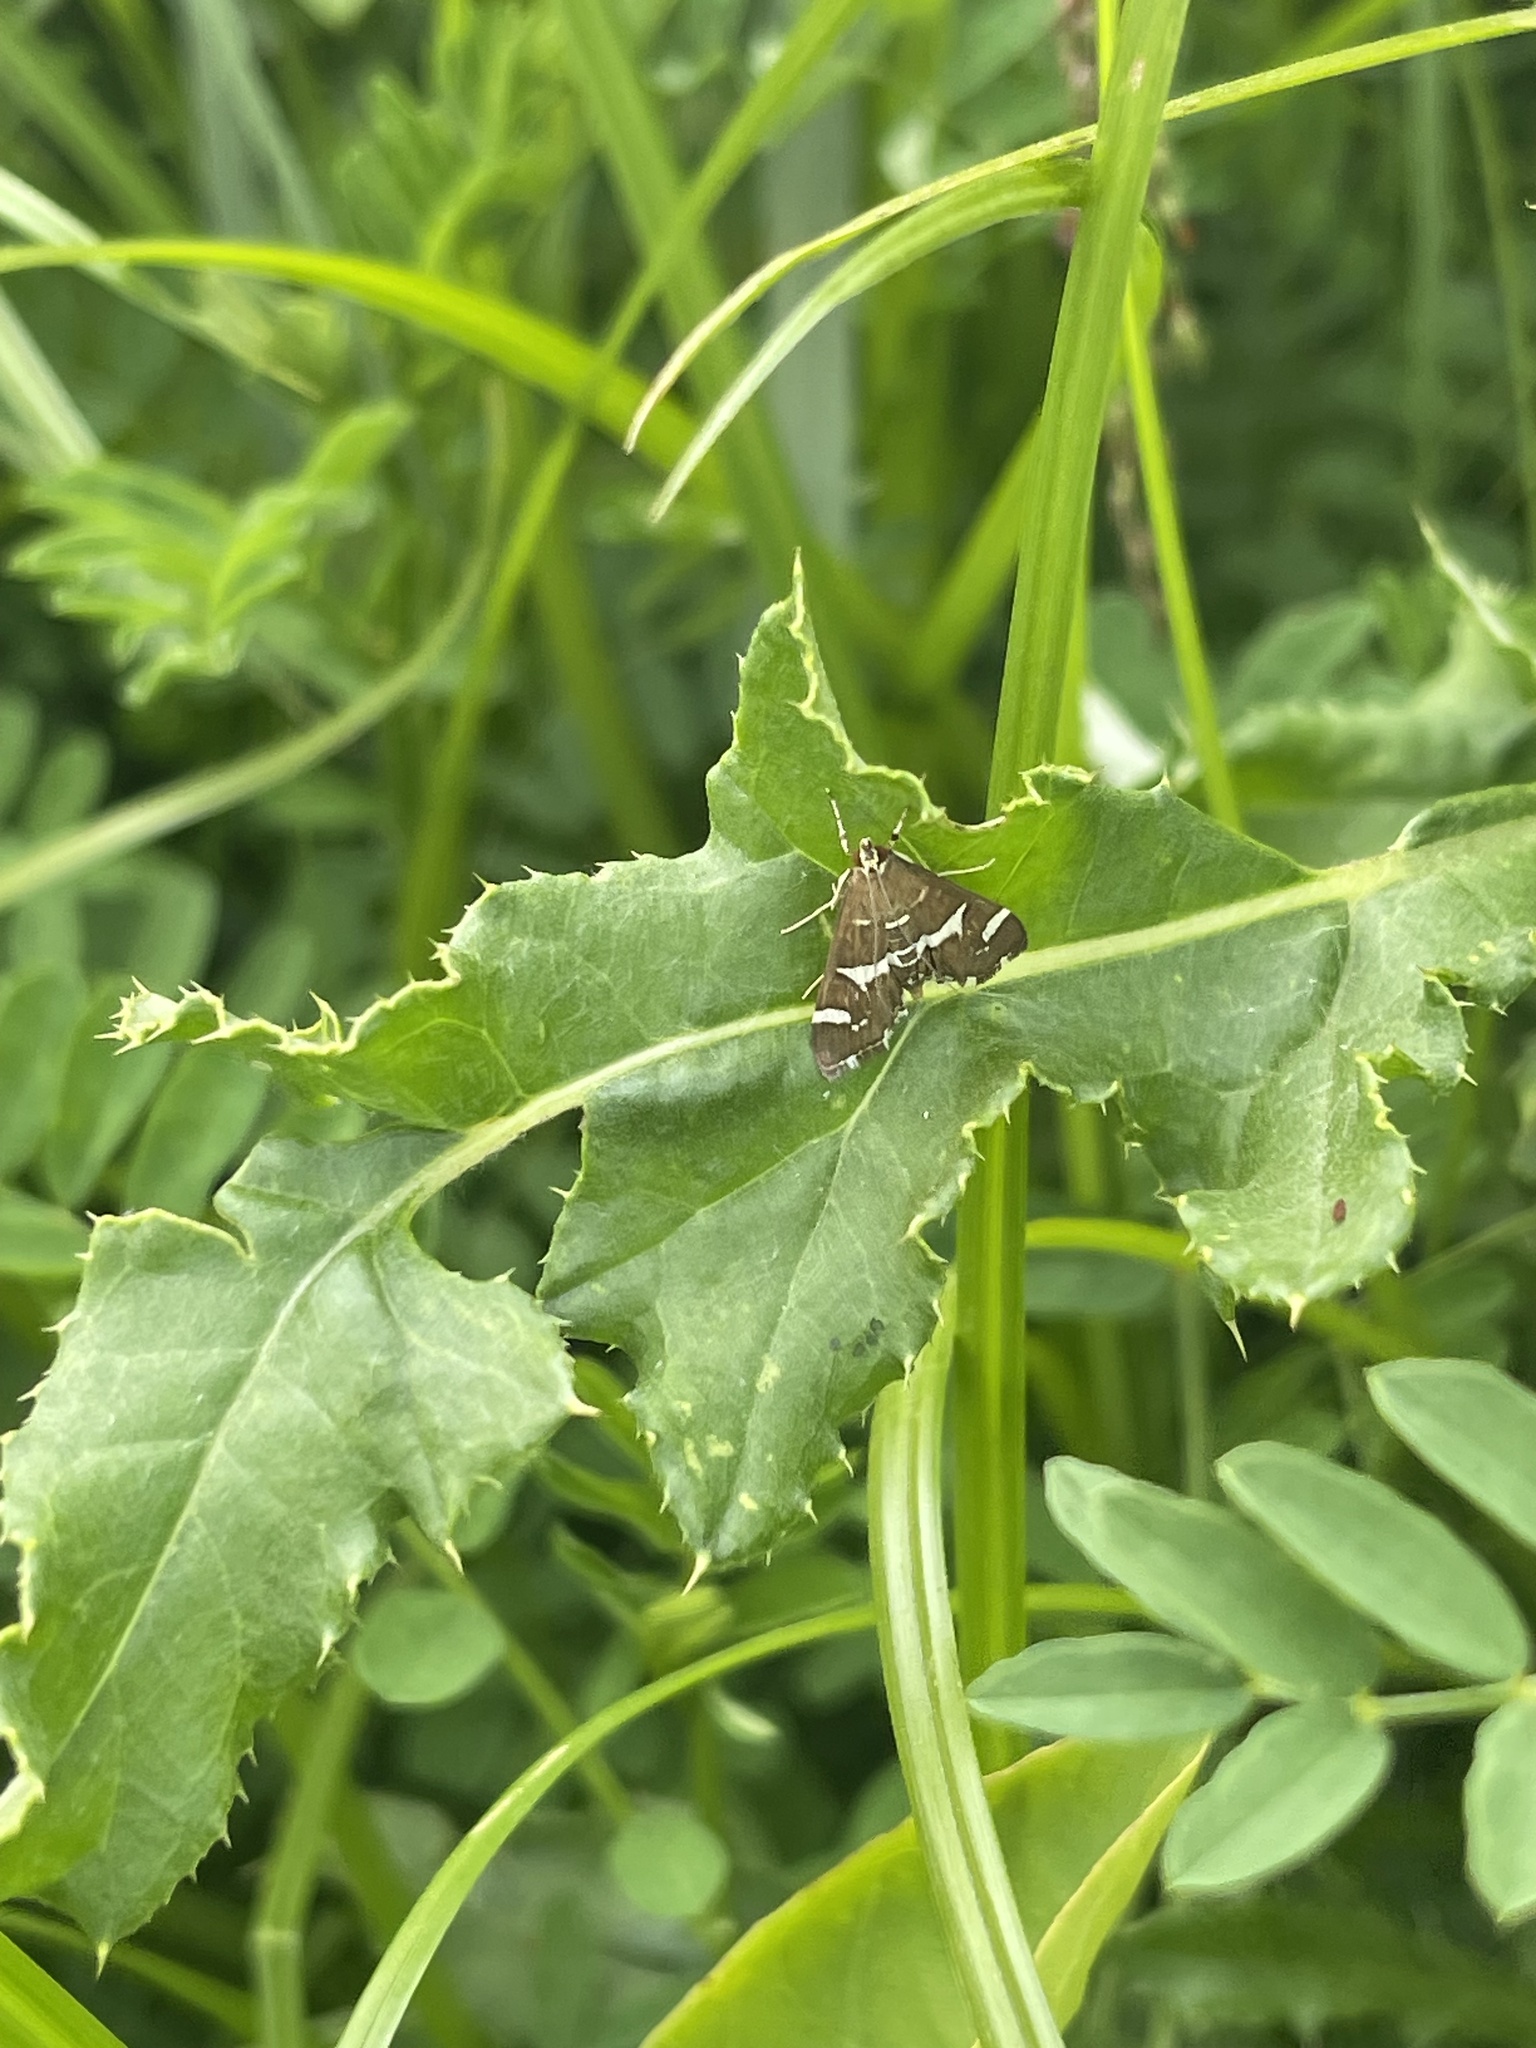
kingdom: Animalia
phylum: Arthropoda
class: Insecta
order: Lepidoptera
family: Crambidae
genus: Spoladea
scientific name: Spoladea recurvalis
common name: Beet webworm moth
